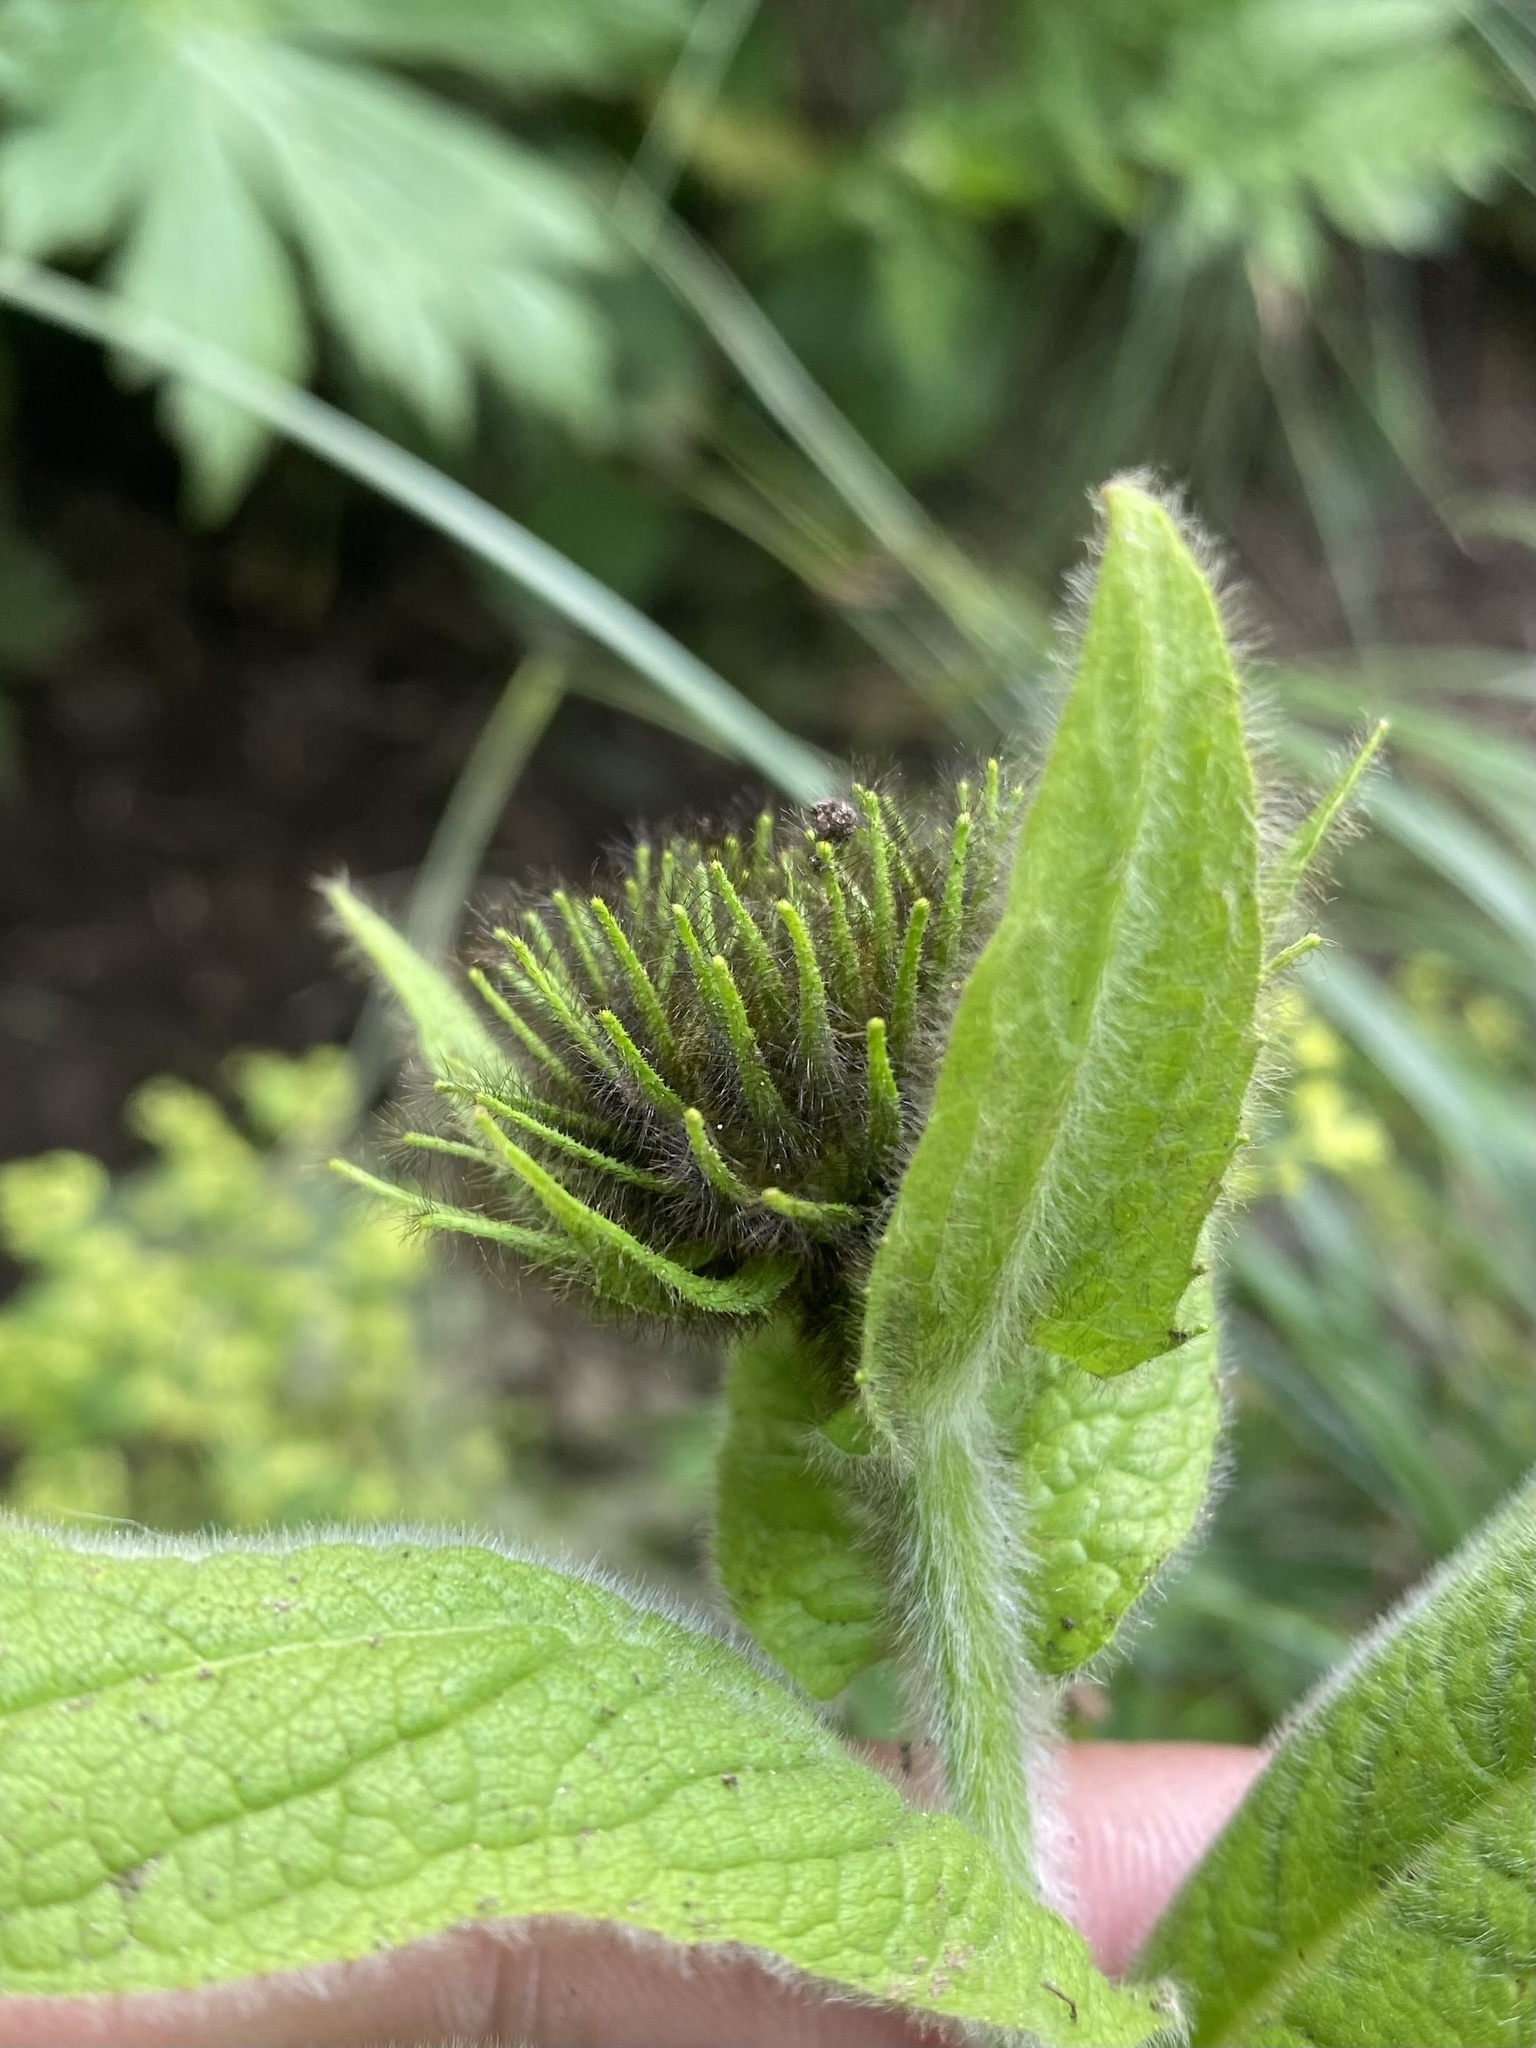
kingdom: Plantae
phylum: Tracheophyta
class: Magnoliopsida
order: Asterales
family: Asteraceae
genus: Pentanema
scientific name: Pentanema orientale
